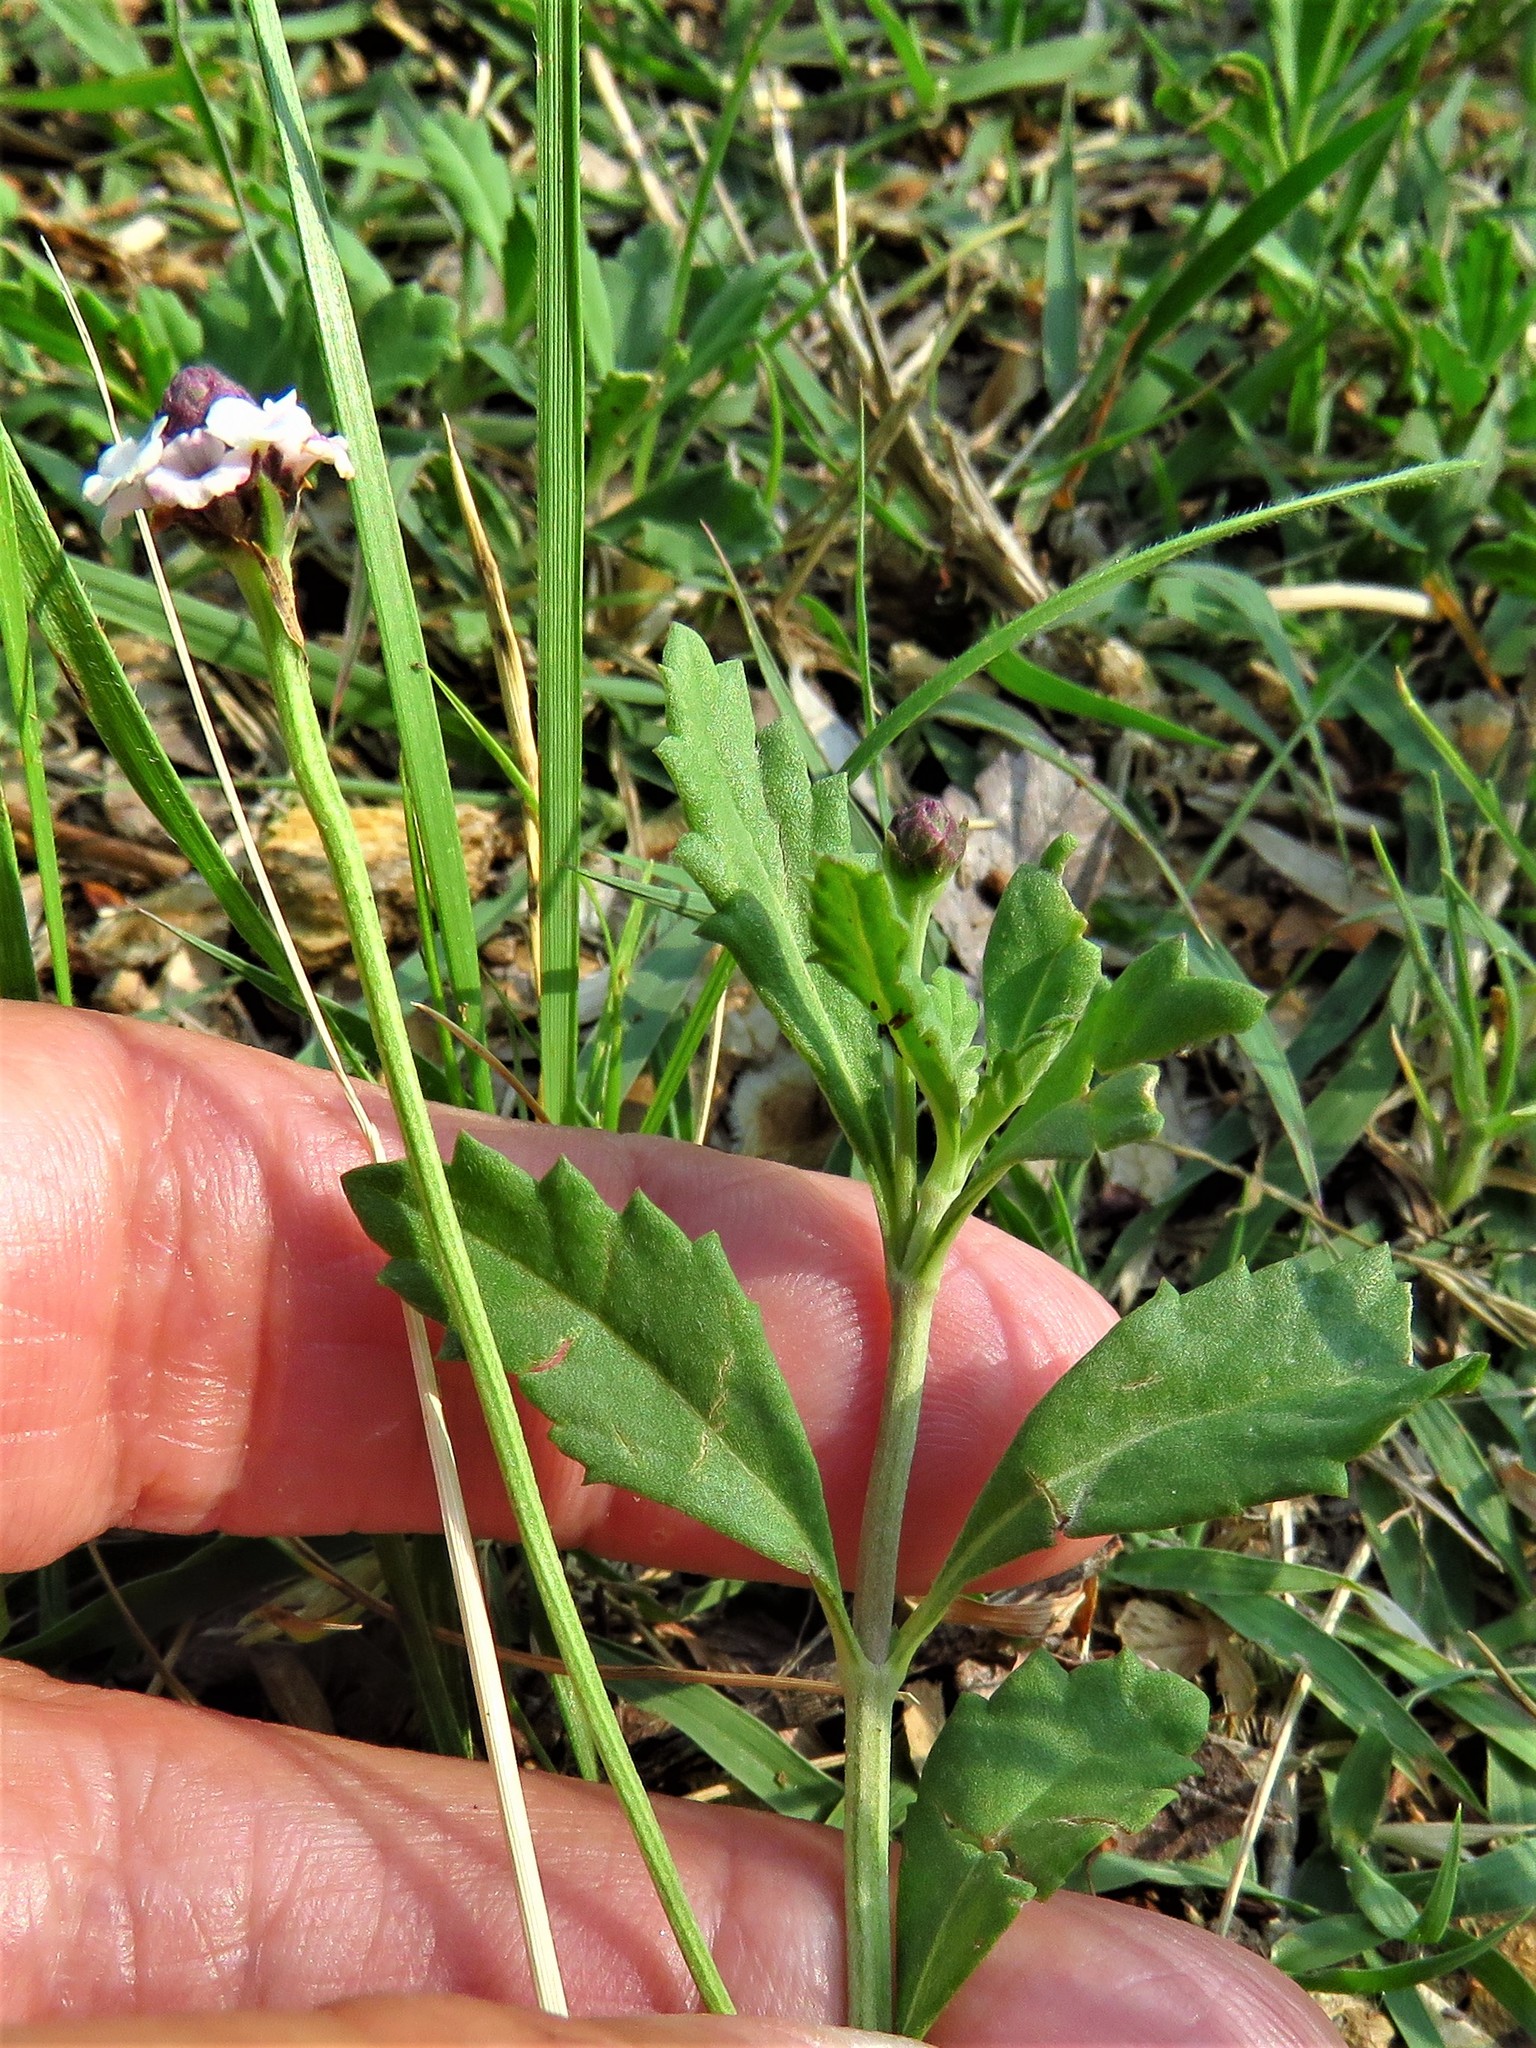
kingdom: Plantae
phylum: Tracheophyta
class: Magnoliopsida
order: Lamiales
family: Verbenaceae
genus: Phyla
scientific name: Phyla lanceolata
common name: Northern fogfruit
